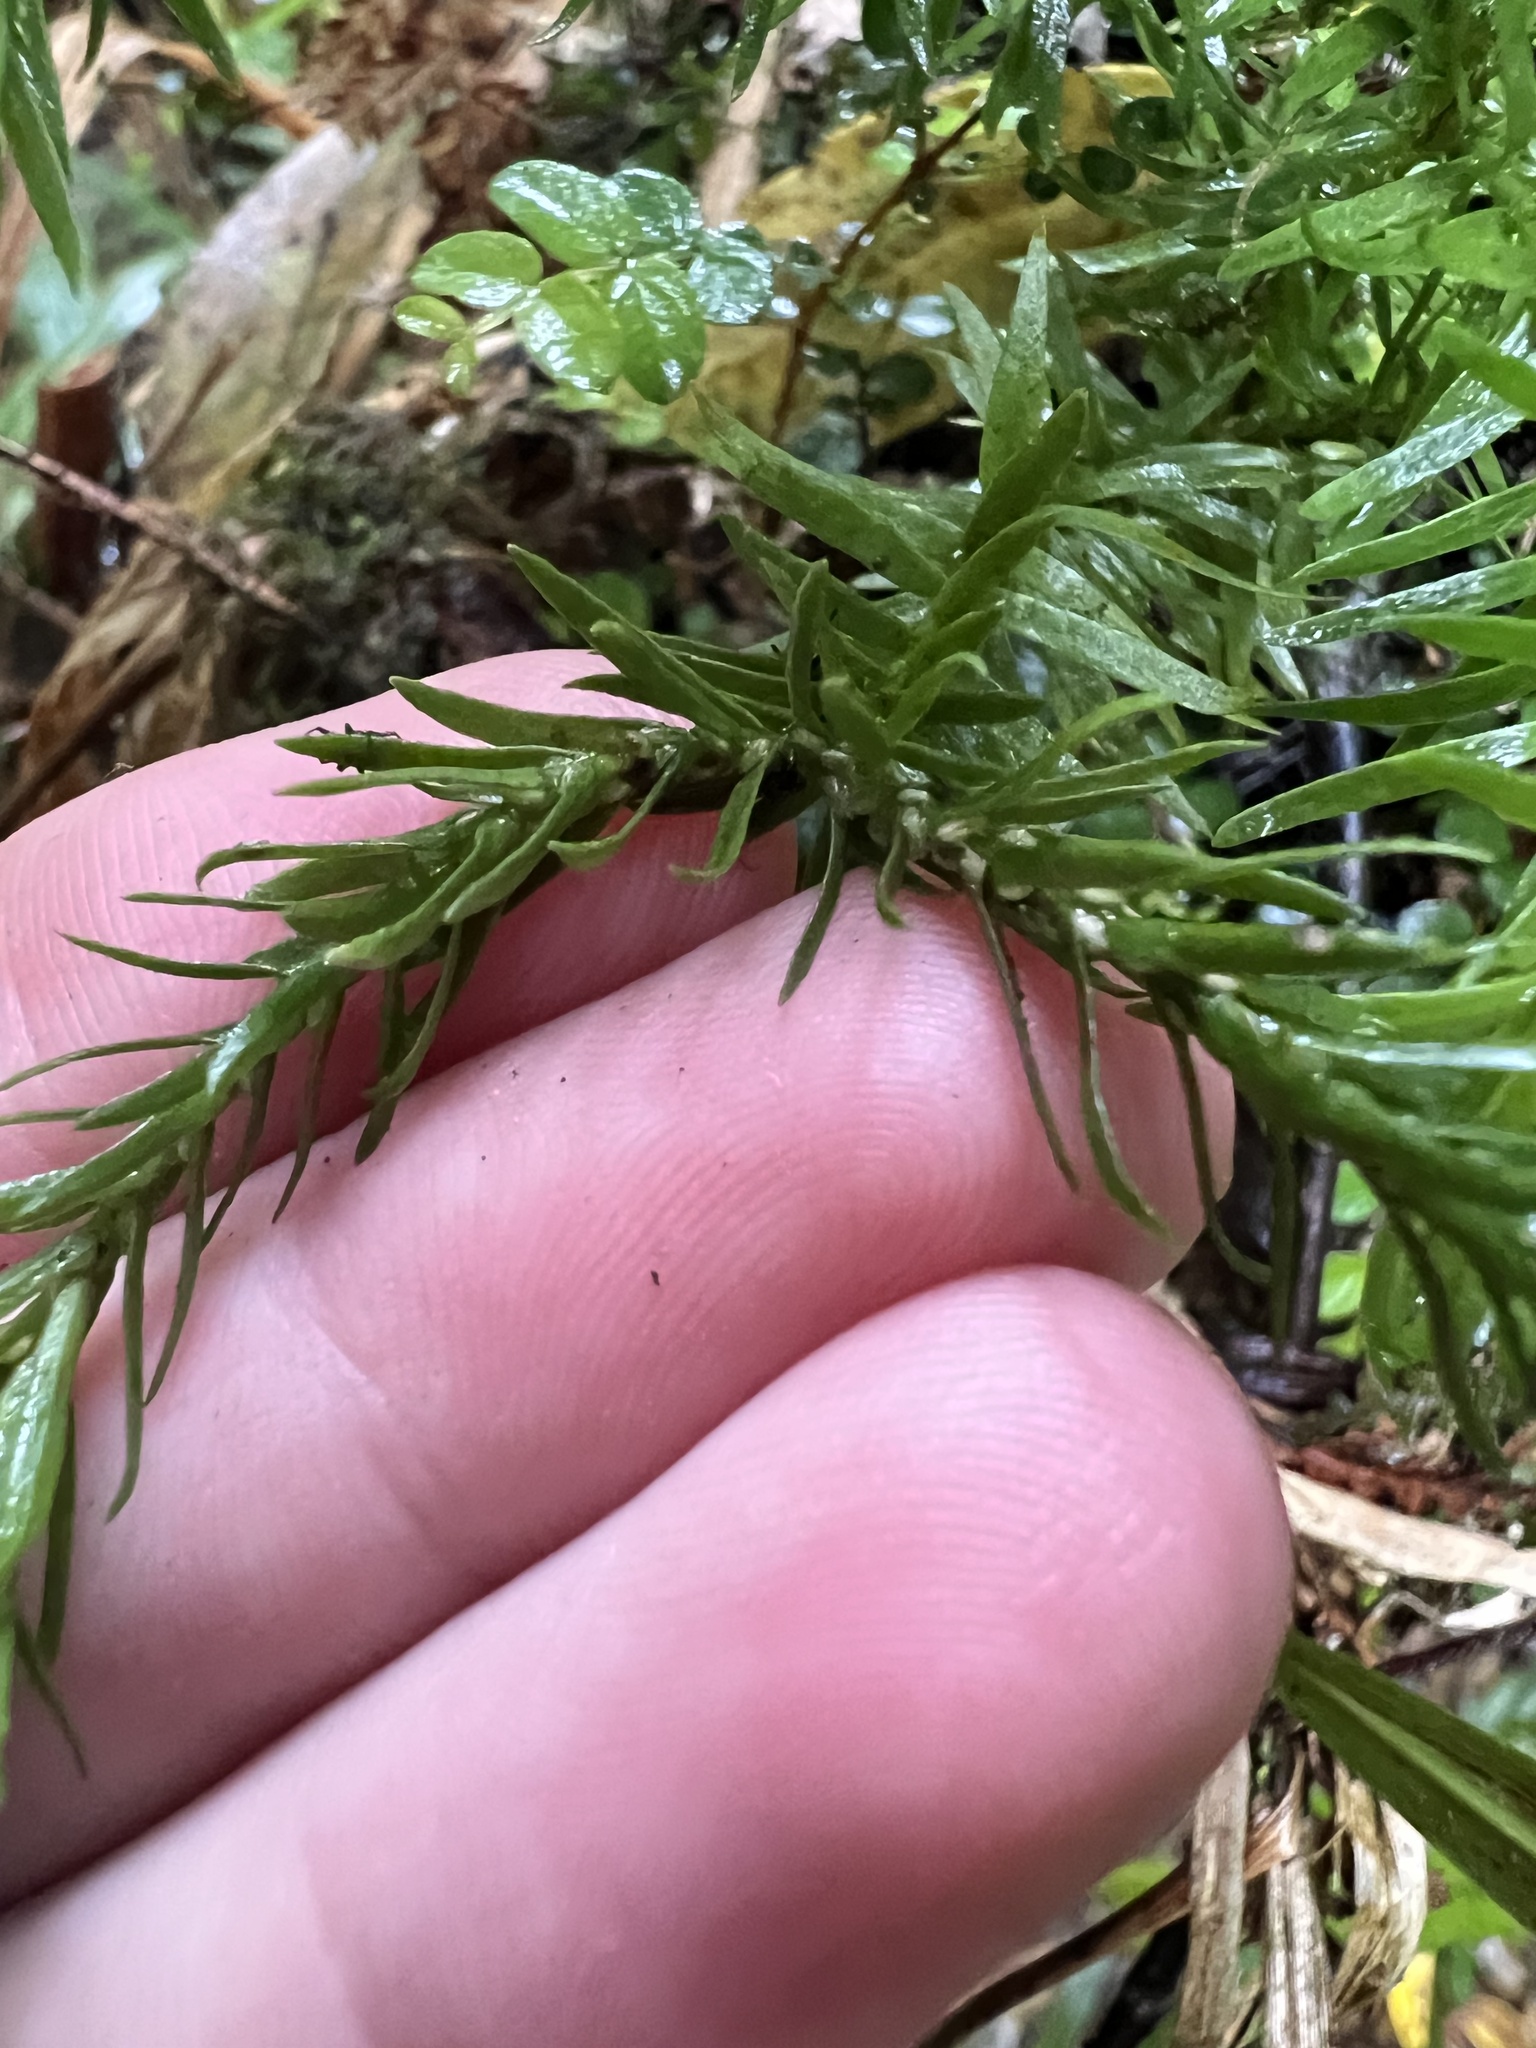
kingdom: Plantae
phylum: Tracheophyta
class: Lycopodiopsida
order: Lycopodiales
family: Lycopodiaceae
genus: Phlegmariurus
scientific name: Phlegmariurus varius
